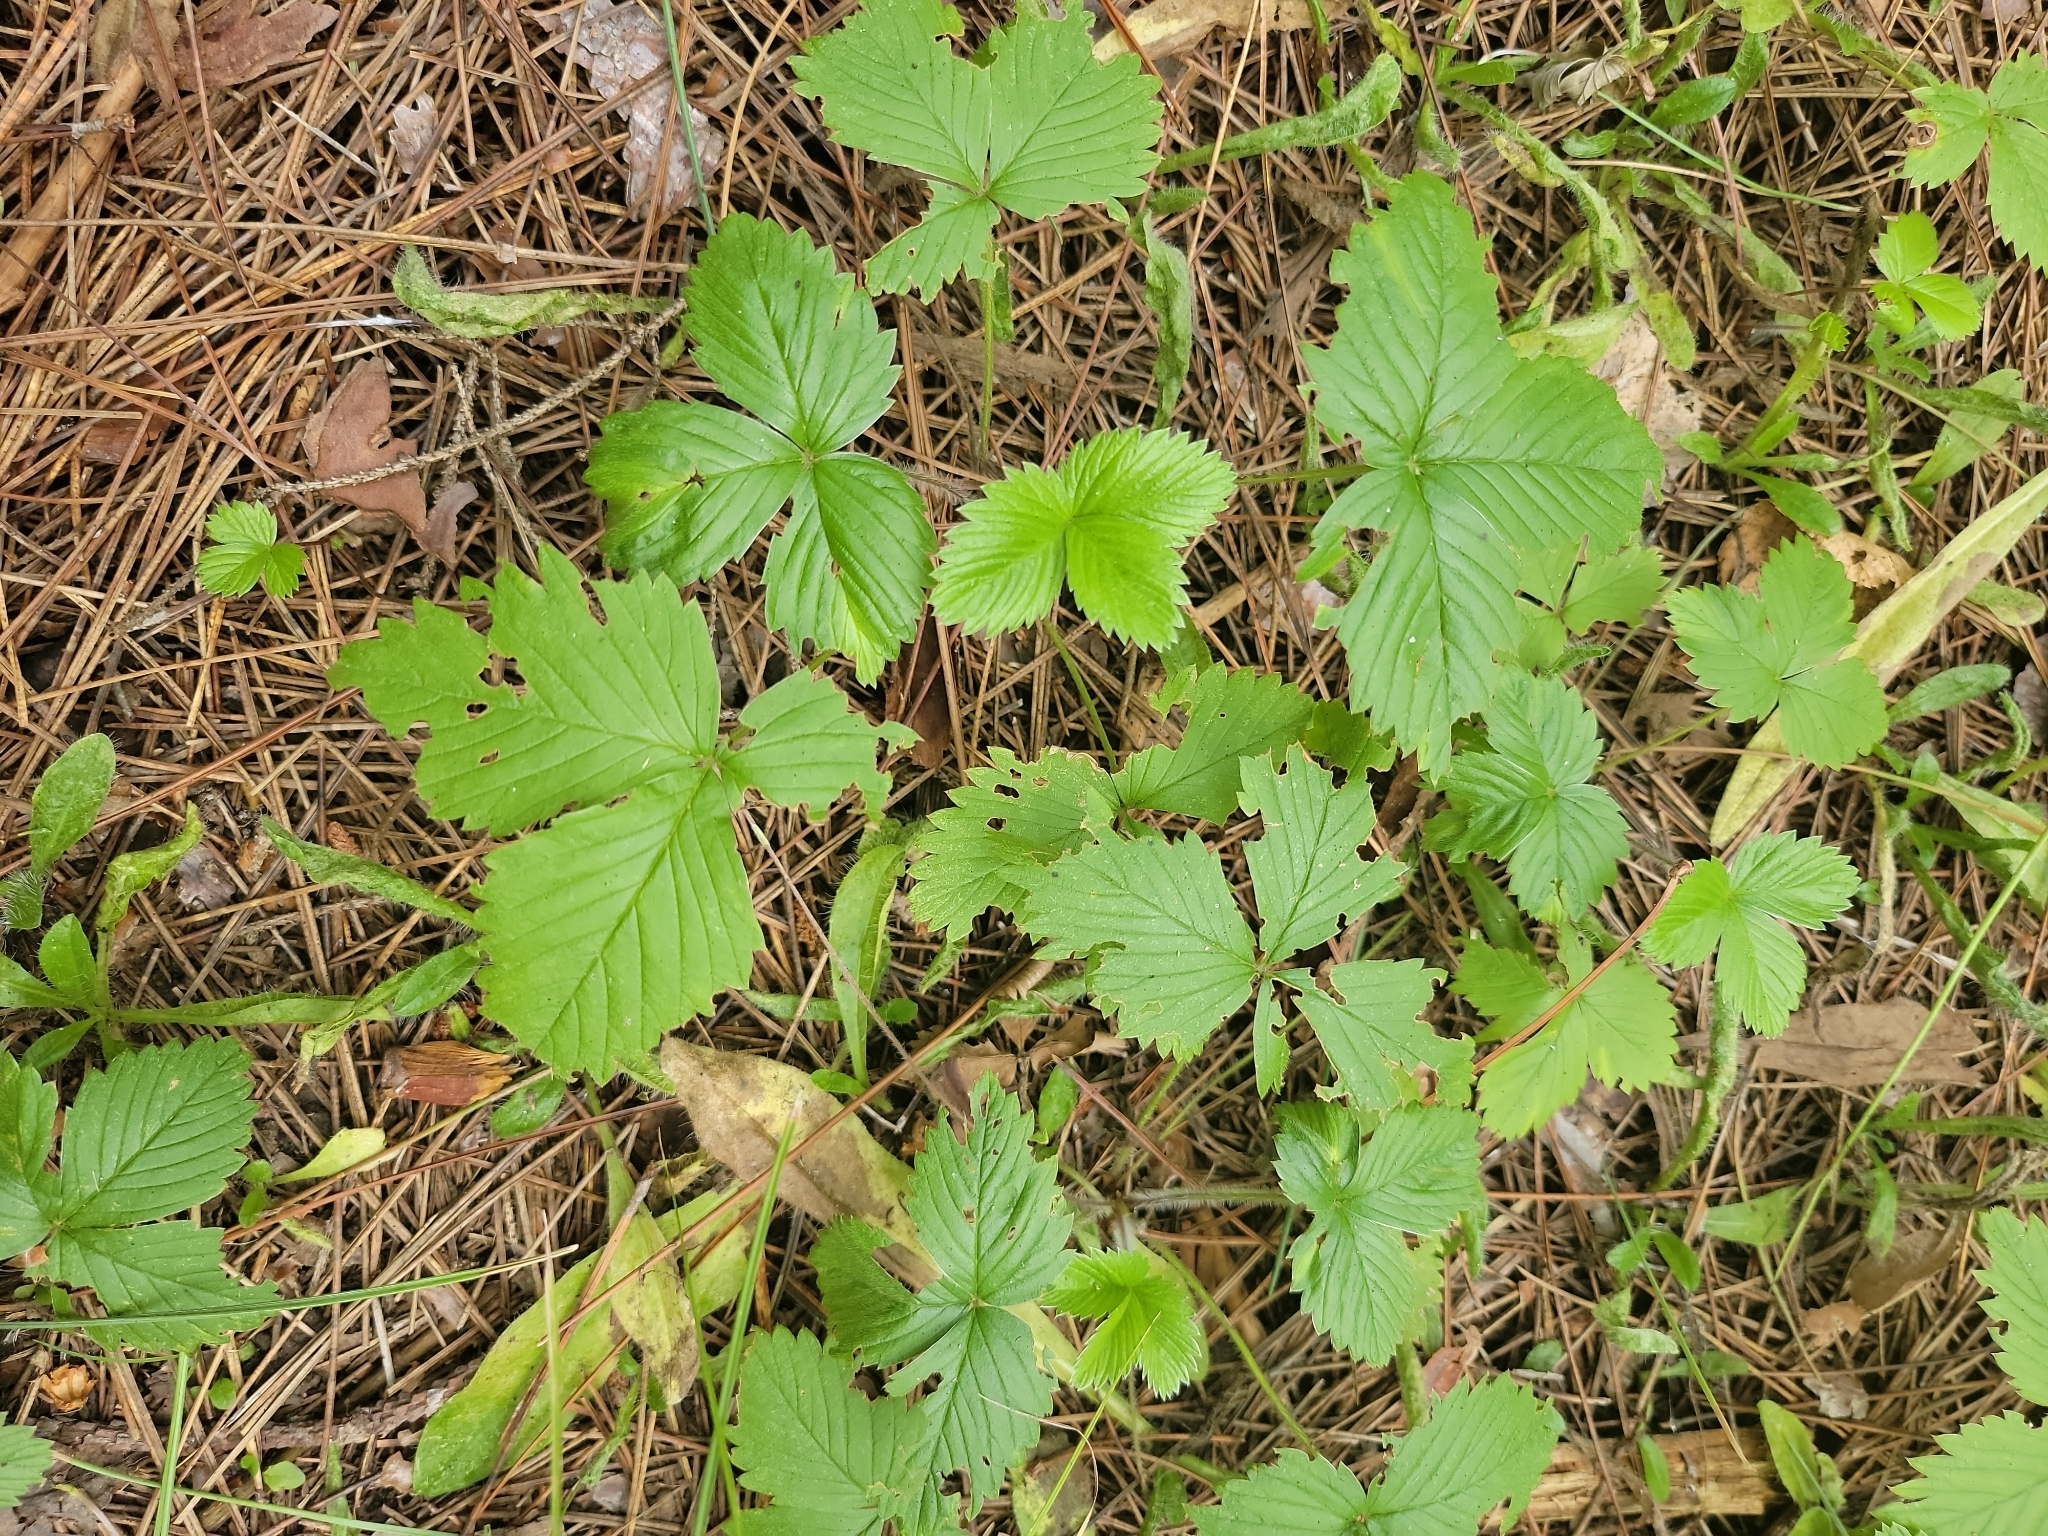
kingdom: Plantae
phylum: Tracheophyta
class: Magnoliopsida
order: Rosales
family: Rosaceae
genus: Fragaria
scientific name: Fragaria vesca
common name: Wild strawberry
